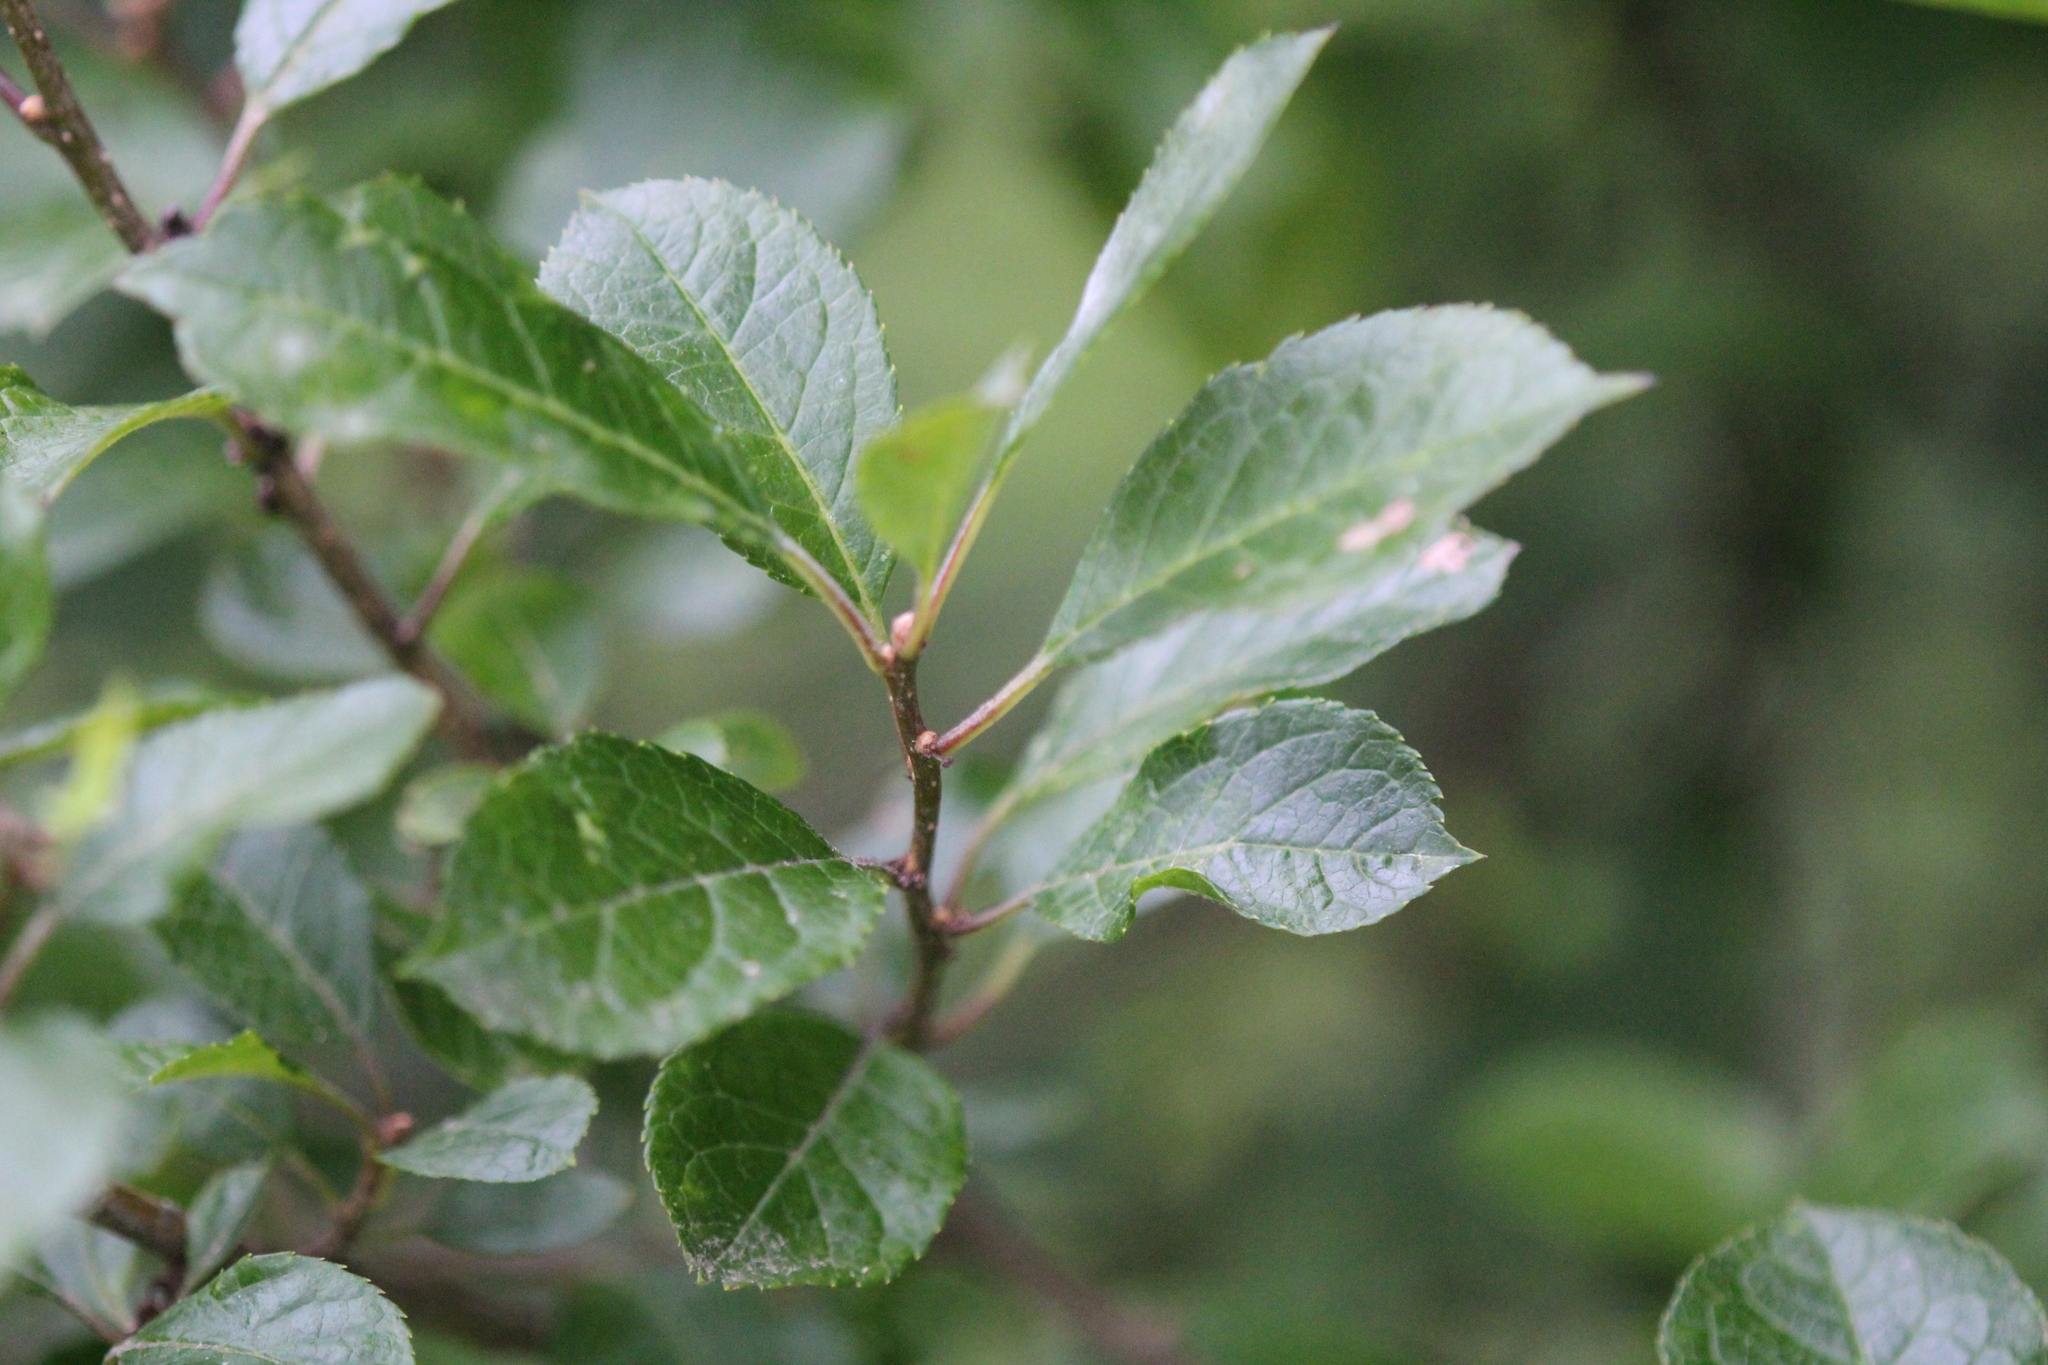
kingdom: Plantae
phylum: Tracheophyta
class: Magnoliopsida
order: Aquifoliales
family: Aquifoliaceae
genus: Ilex
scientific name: Ilex verticillata
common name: Virginia winterberry
